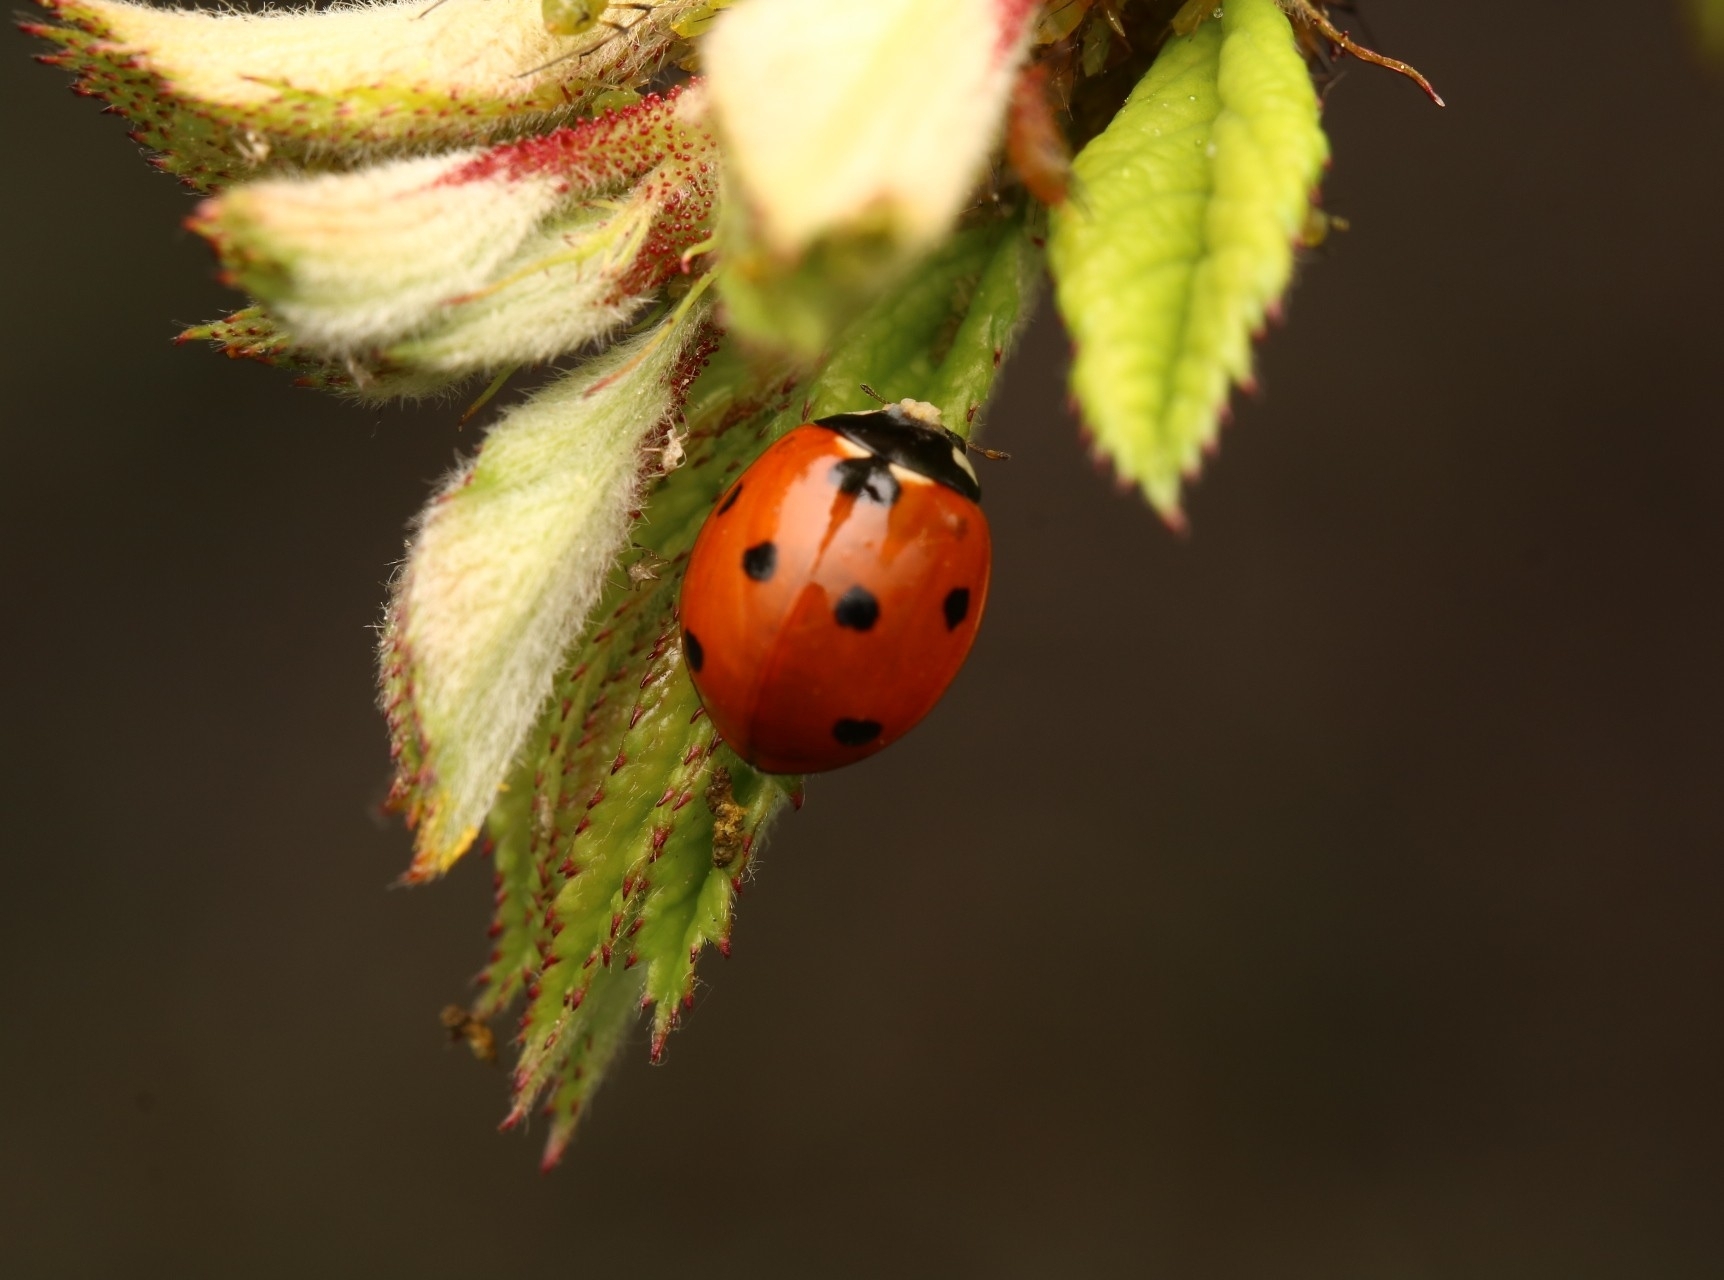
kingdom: Animalia
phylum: Arthropoda
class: Insecta
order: Coleoptera
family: Coccinellidae
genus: Coccinella
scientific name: Coccinella septempunctata
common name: Sevenspotted lady beetle
